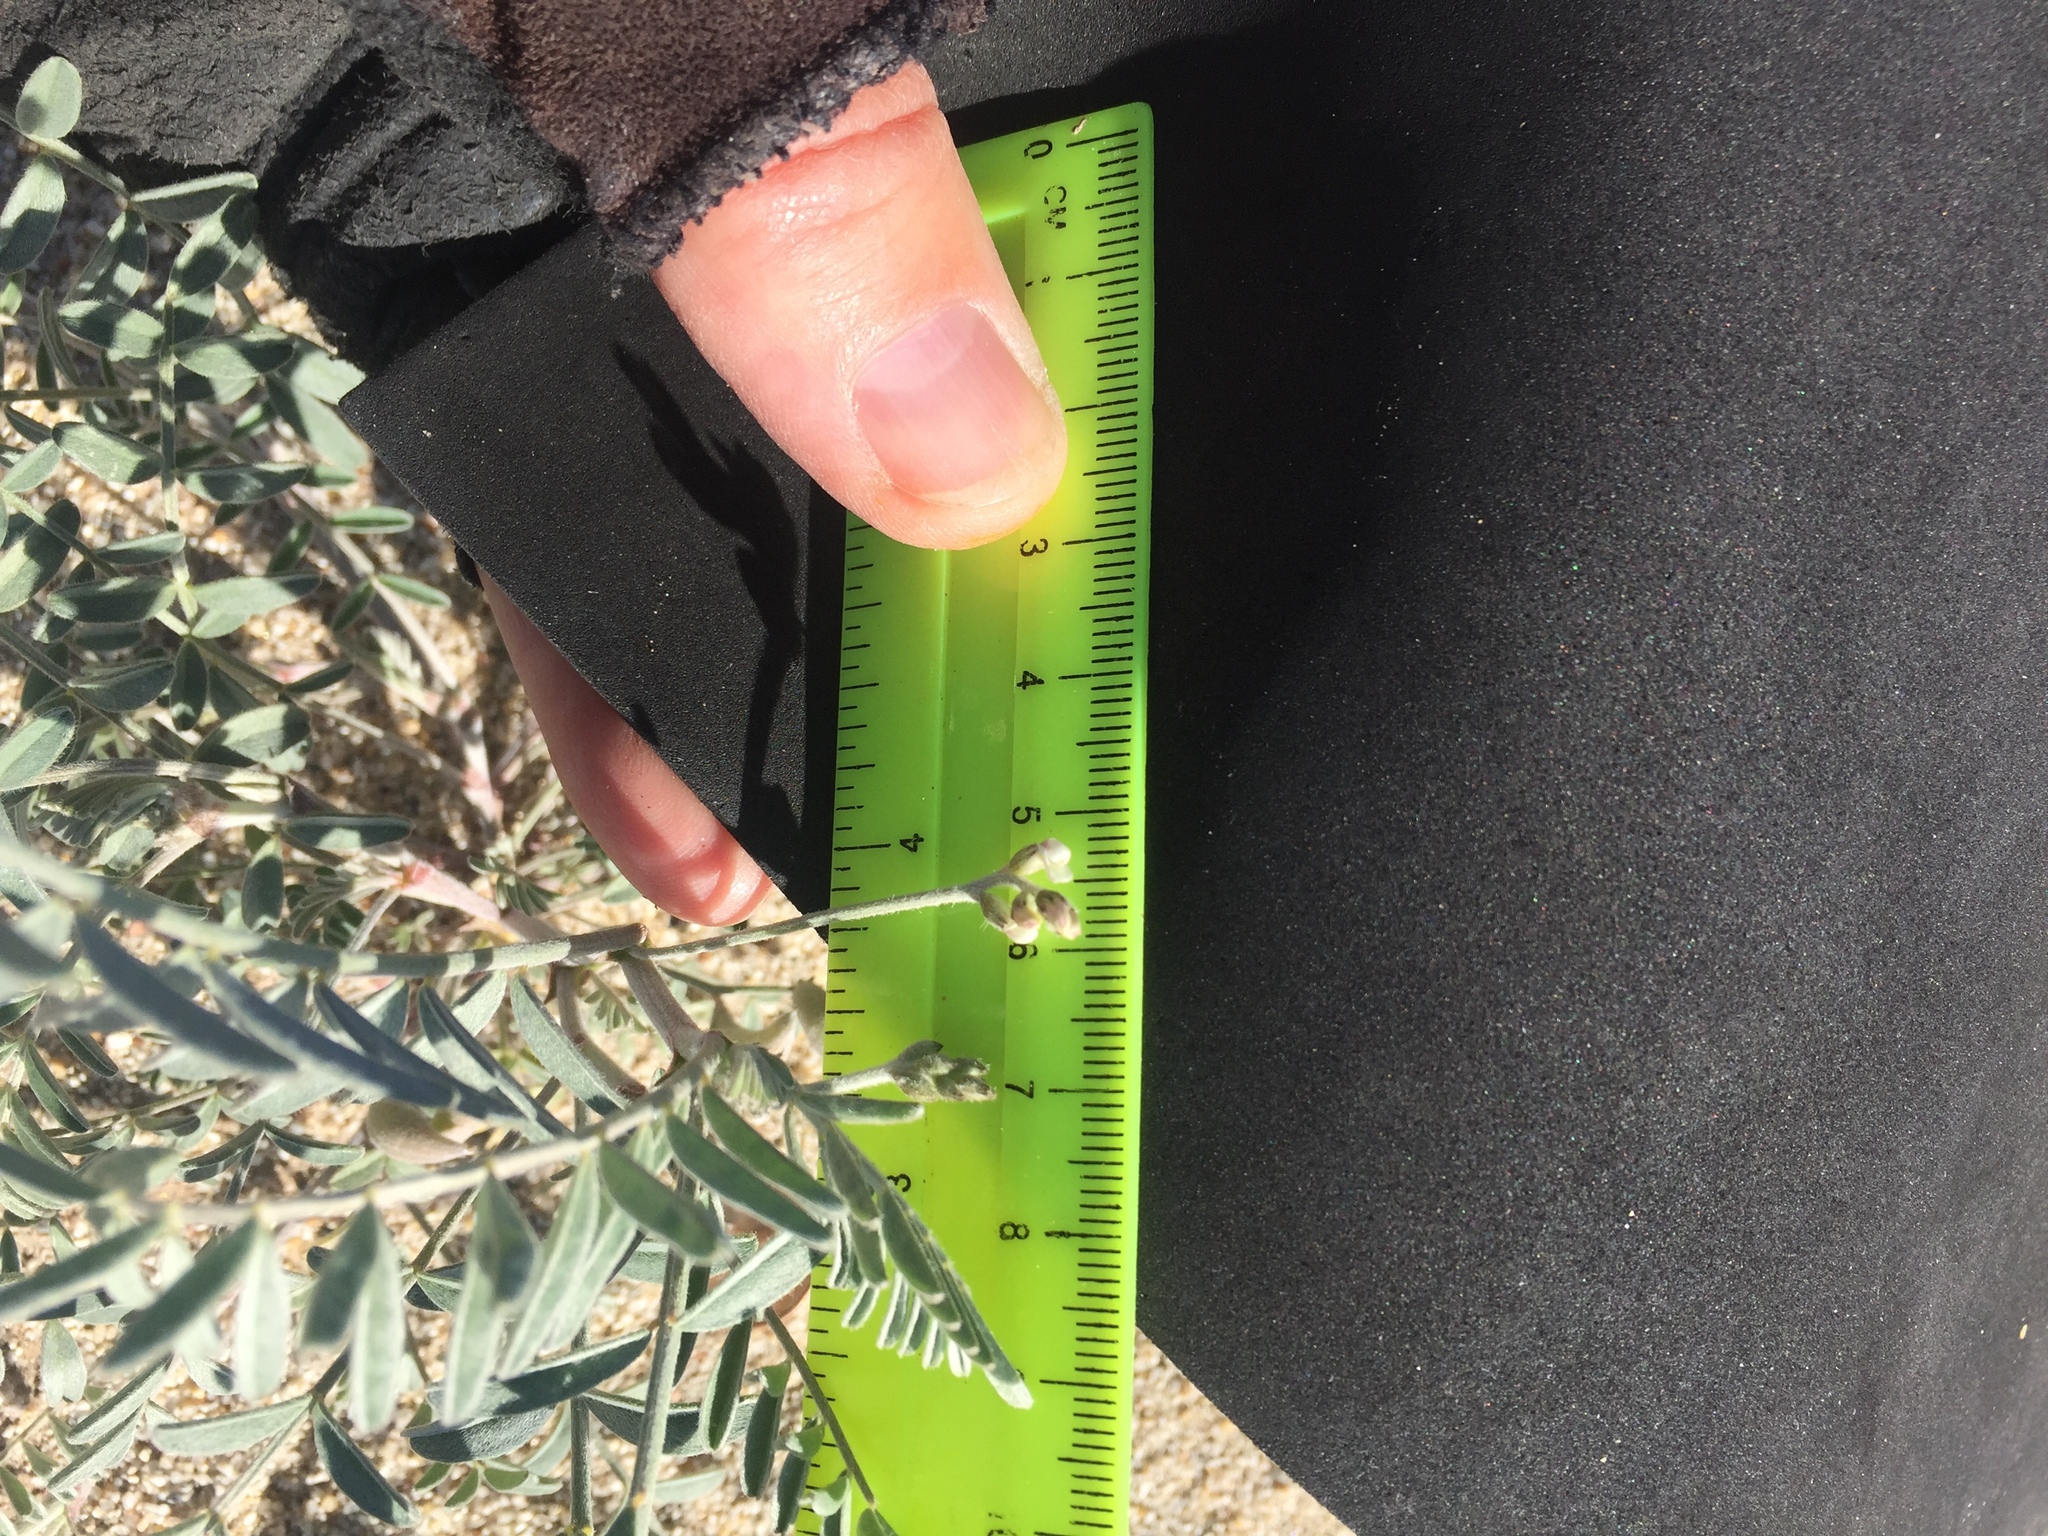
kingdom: Plantae
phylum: Tracheophyta
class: Magnoliopsida
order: Fabales
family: Fabaceae
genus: Astragalus
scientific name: Astragalus aridus
